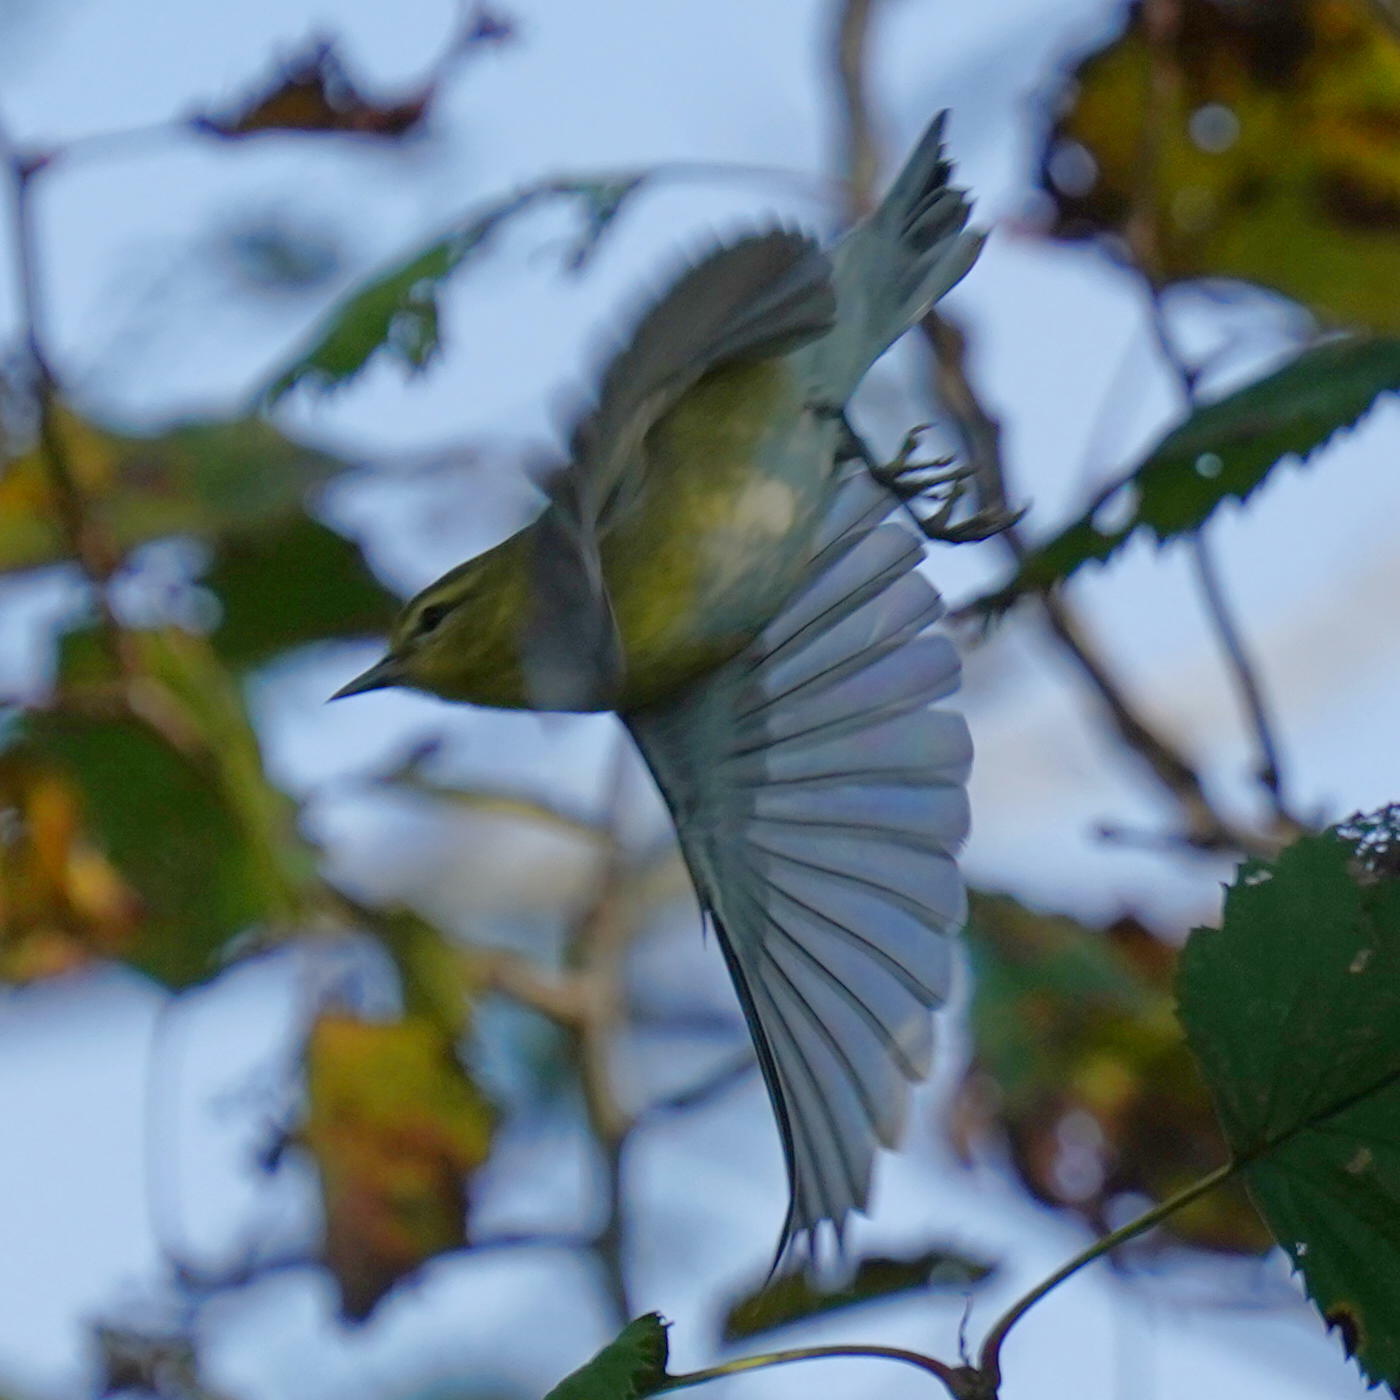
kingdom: Animalia
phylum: Chordata
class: Aves
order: Passeriformes
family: Parulidae
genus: Leiothlypis
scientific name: Leiothlypis peregrina
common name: Tennessee warbler
